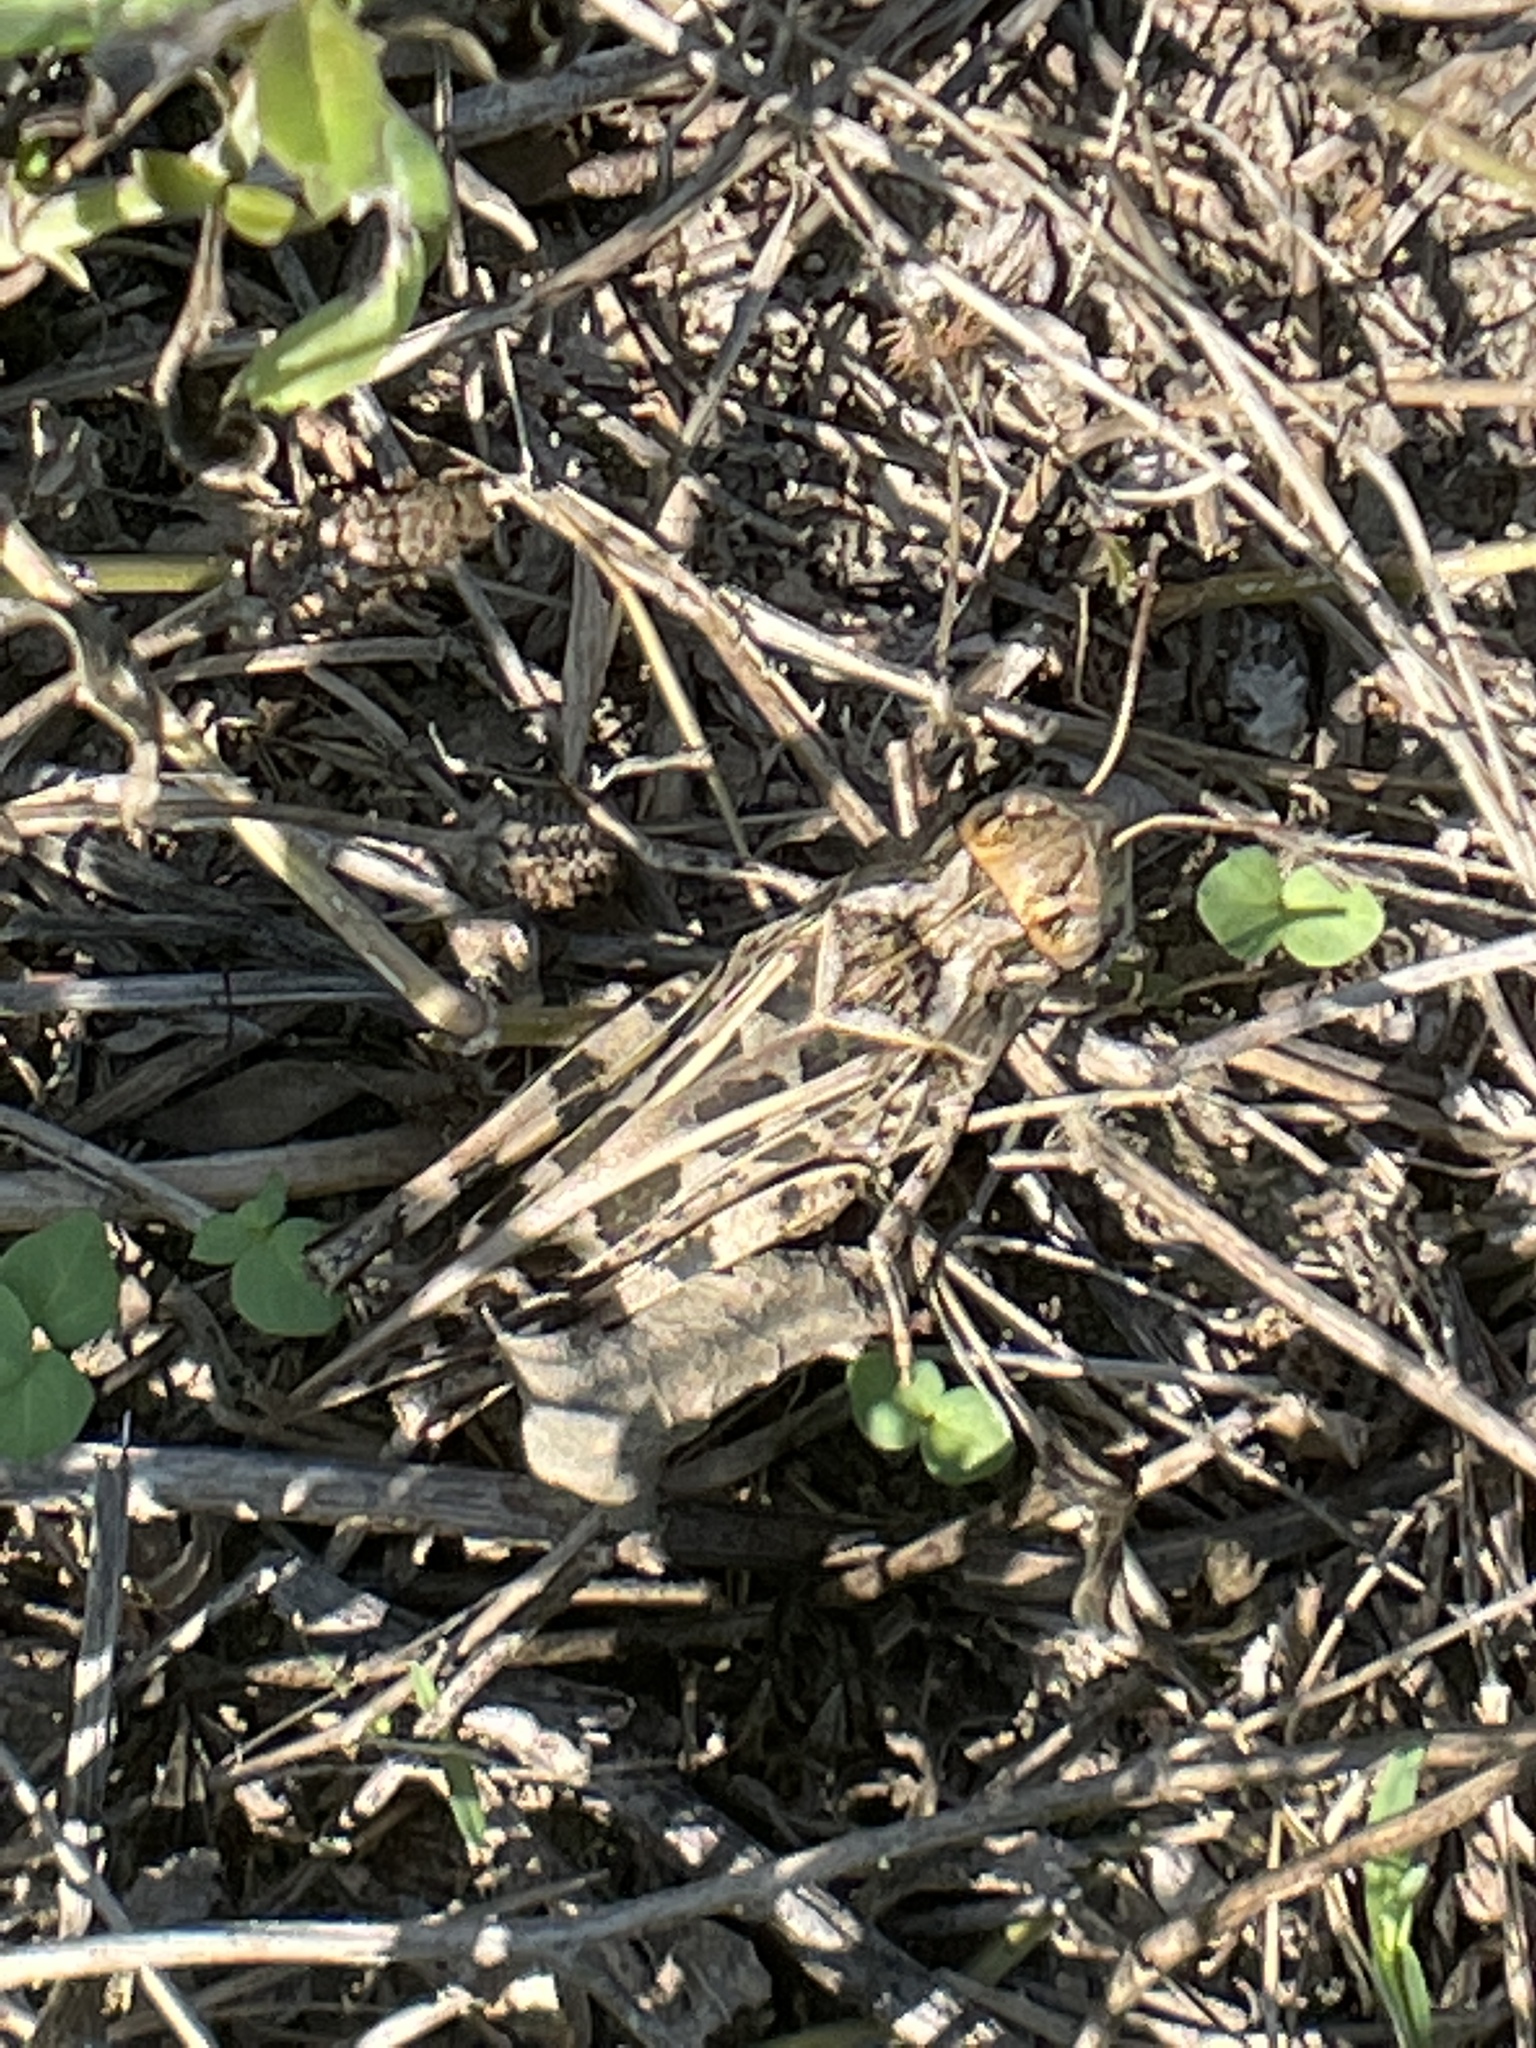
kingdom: Animalia
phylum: Arthropoda
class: Insecta
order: Orthoptera
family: Acrididae
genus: Hippiscus
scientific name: Hippiscus ocelote
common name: Wrinkled grasshopper
